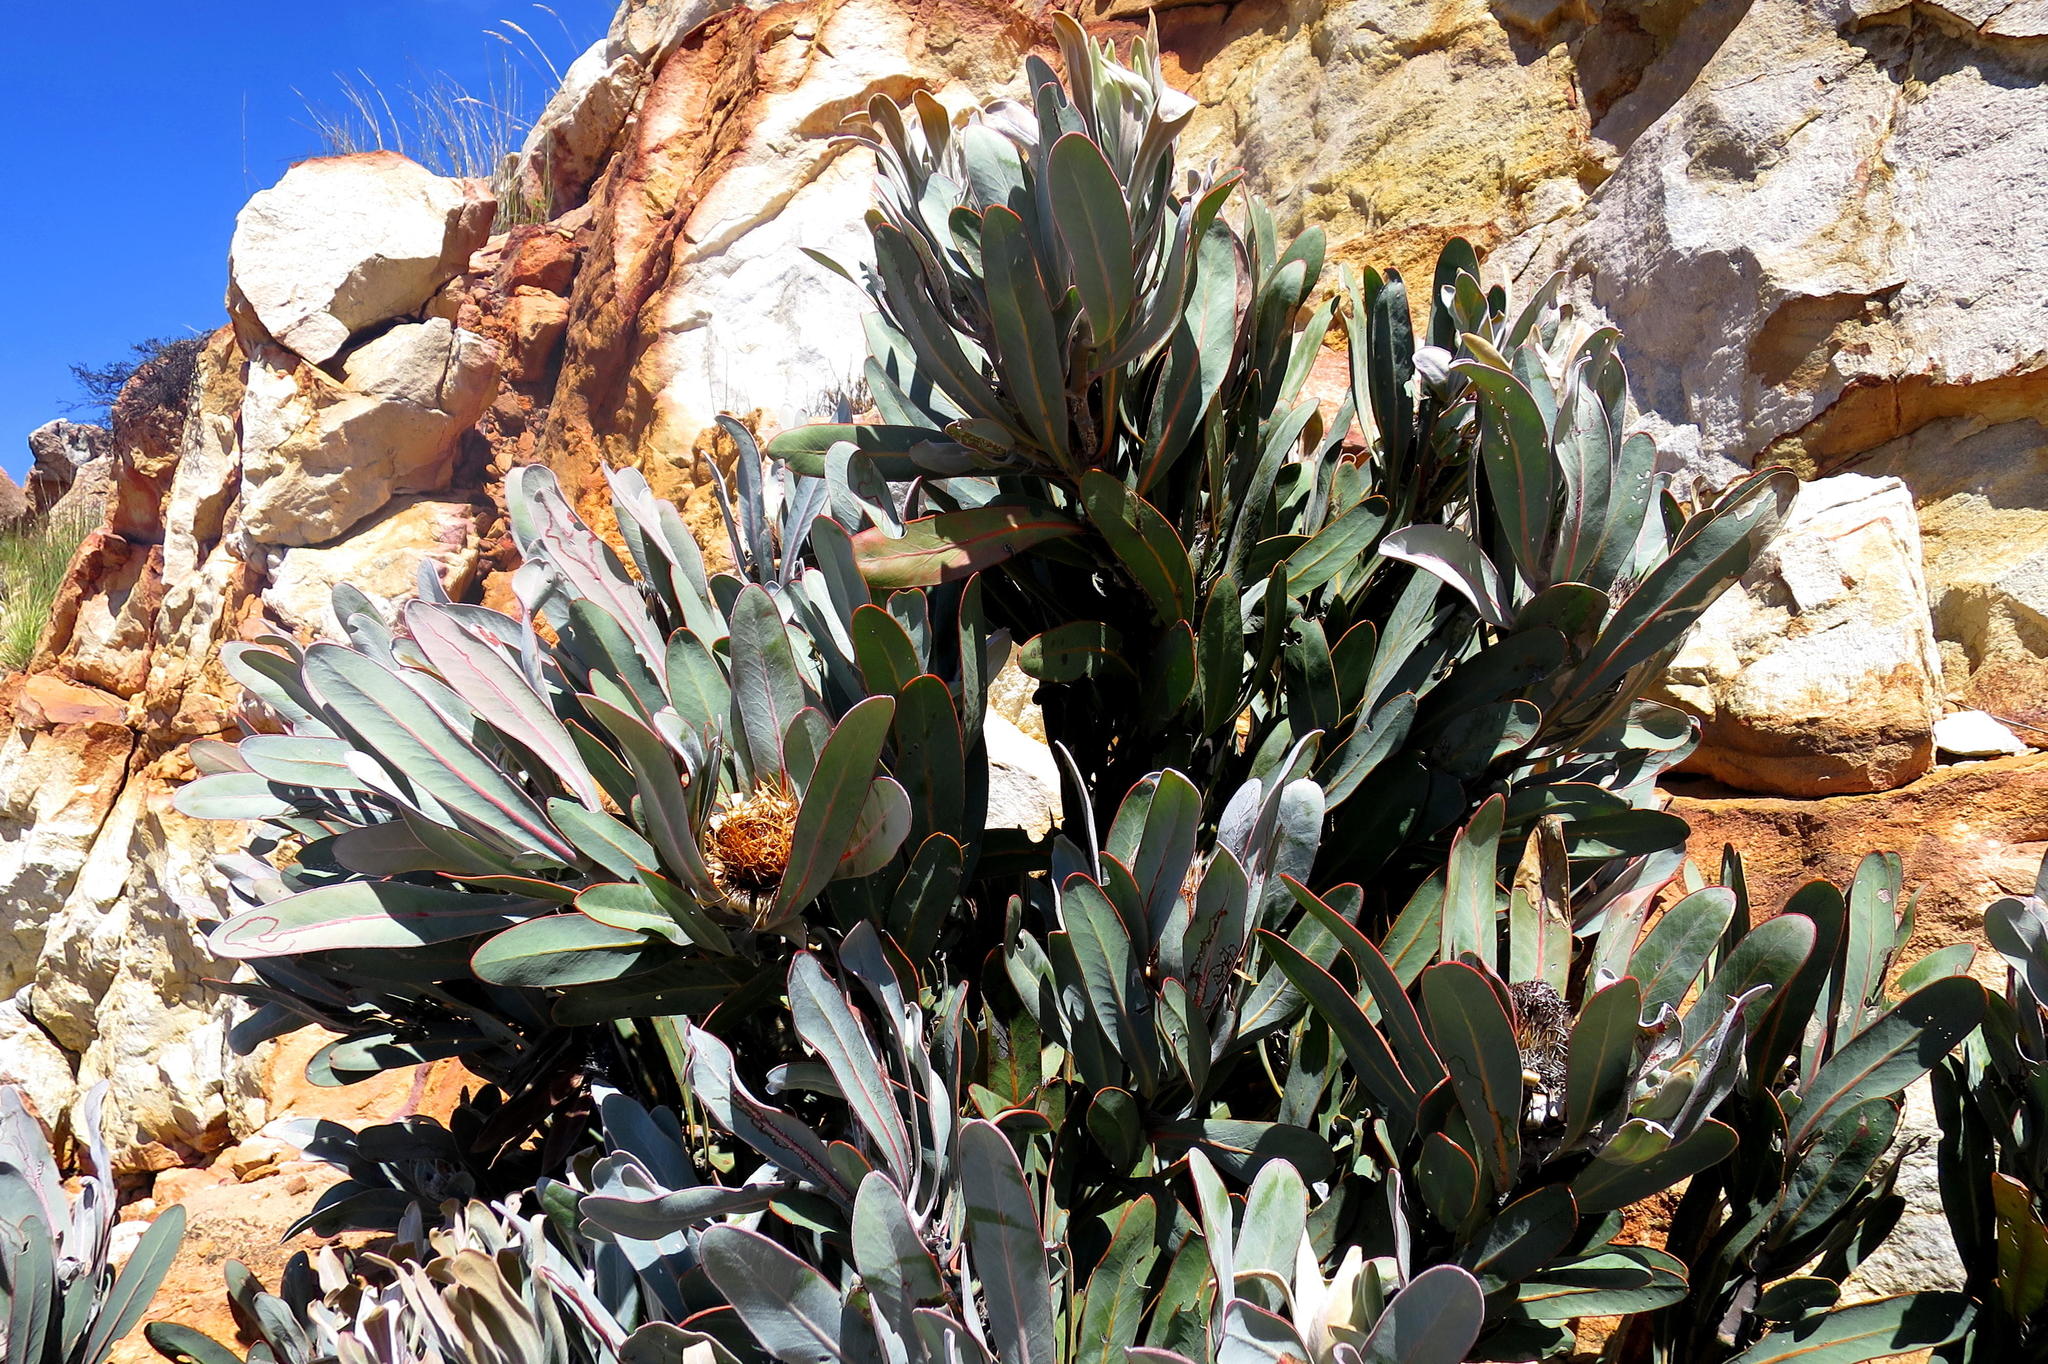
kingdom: Plantae
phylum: Tracheophyta
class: Magnoliopsida
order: Proteales
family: Proteaceae
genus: Protea
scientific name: Protea lorifolia
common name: Strap-leaved protea
